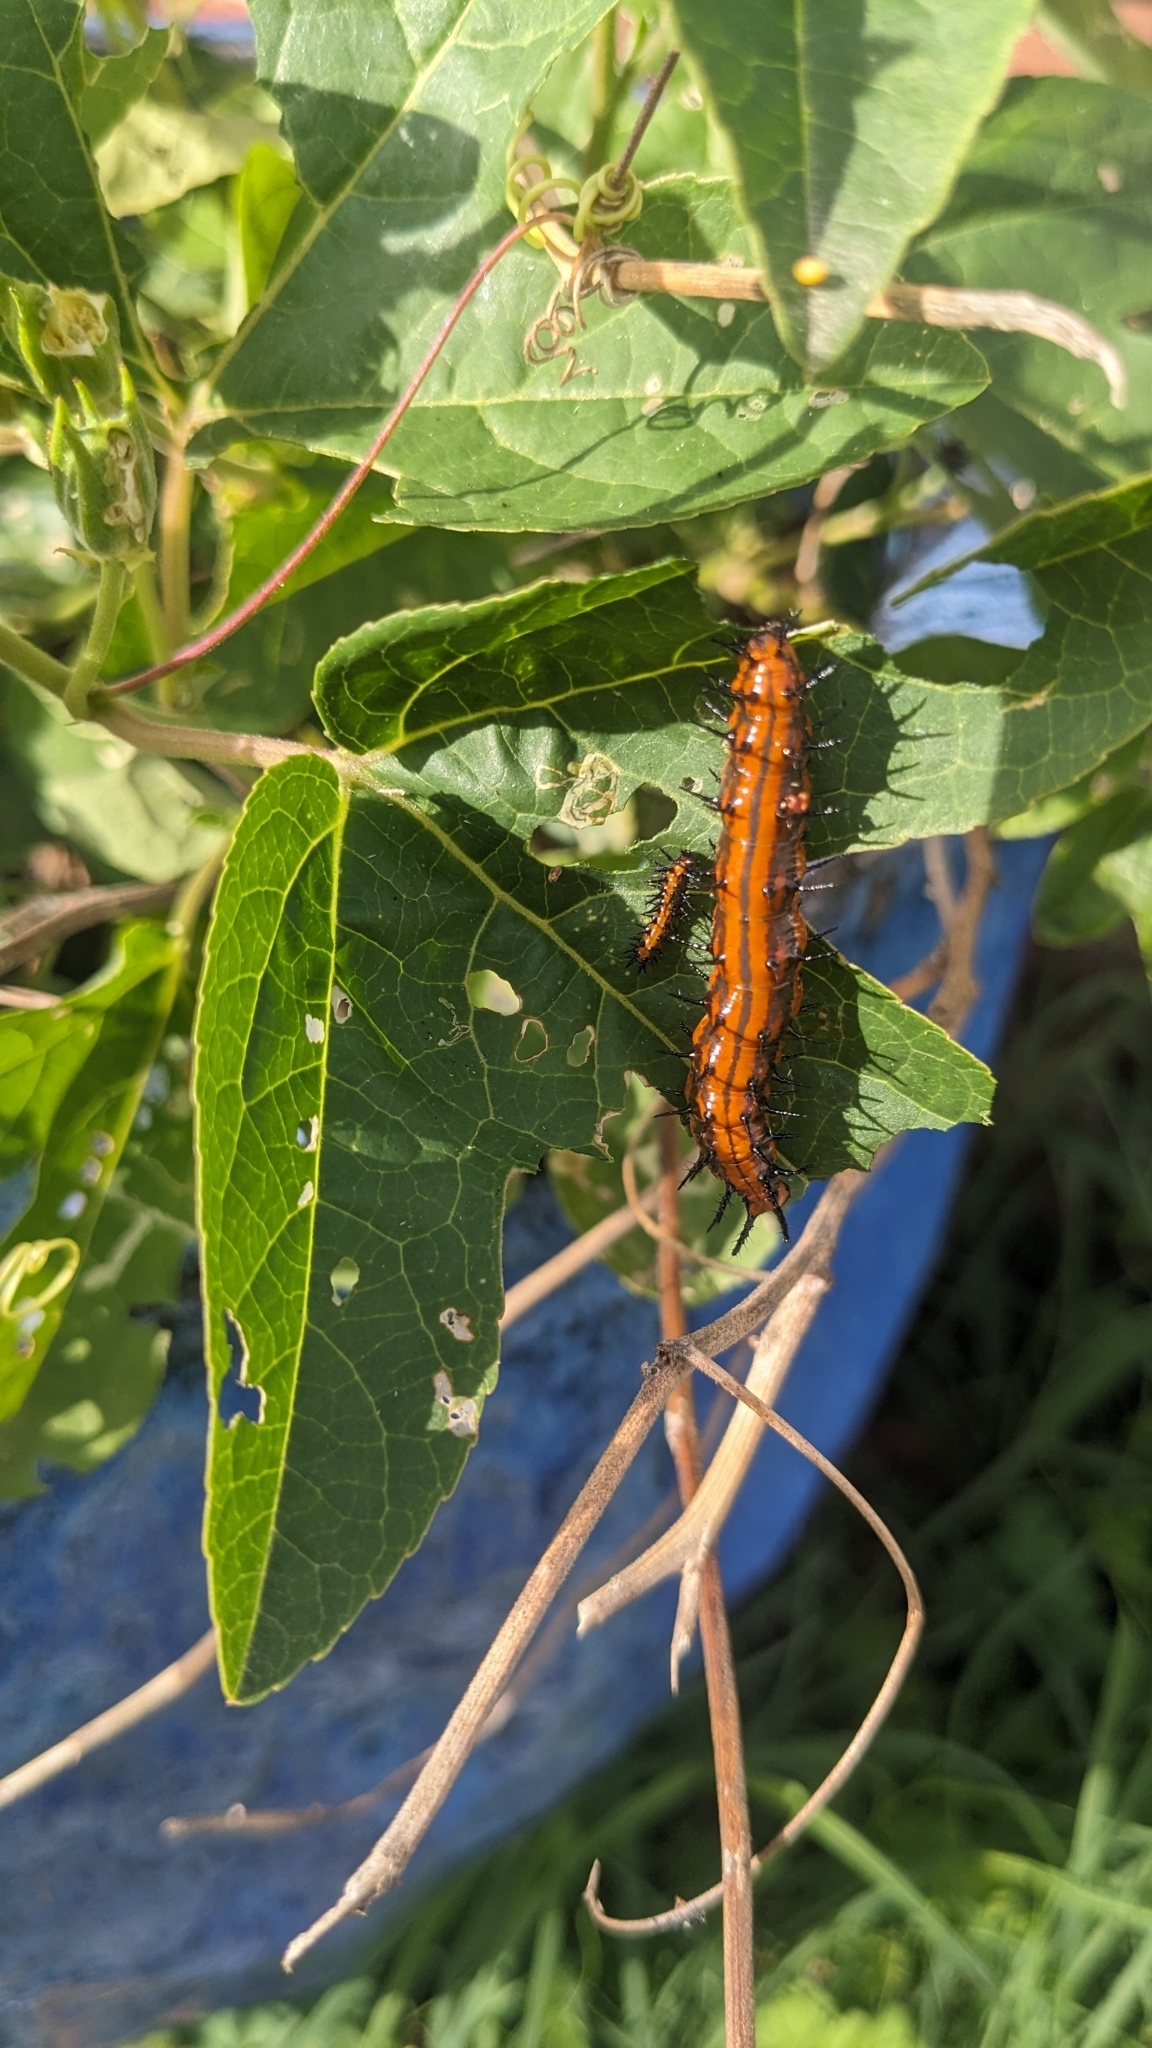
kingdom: Animalia
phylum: Arthropoda
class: Insecta
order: Lepidoptera
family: Nymphalidae
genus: Dione
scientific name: Dione vanillae
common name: Gulf fritillary
